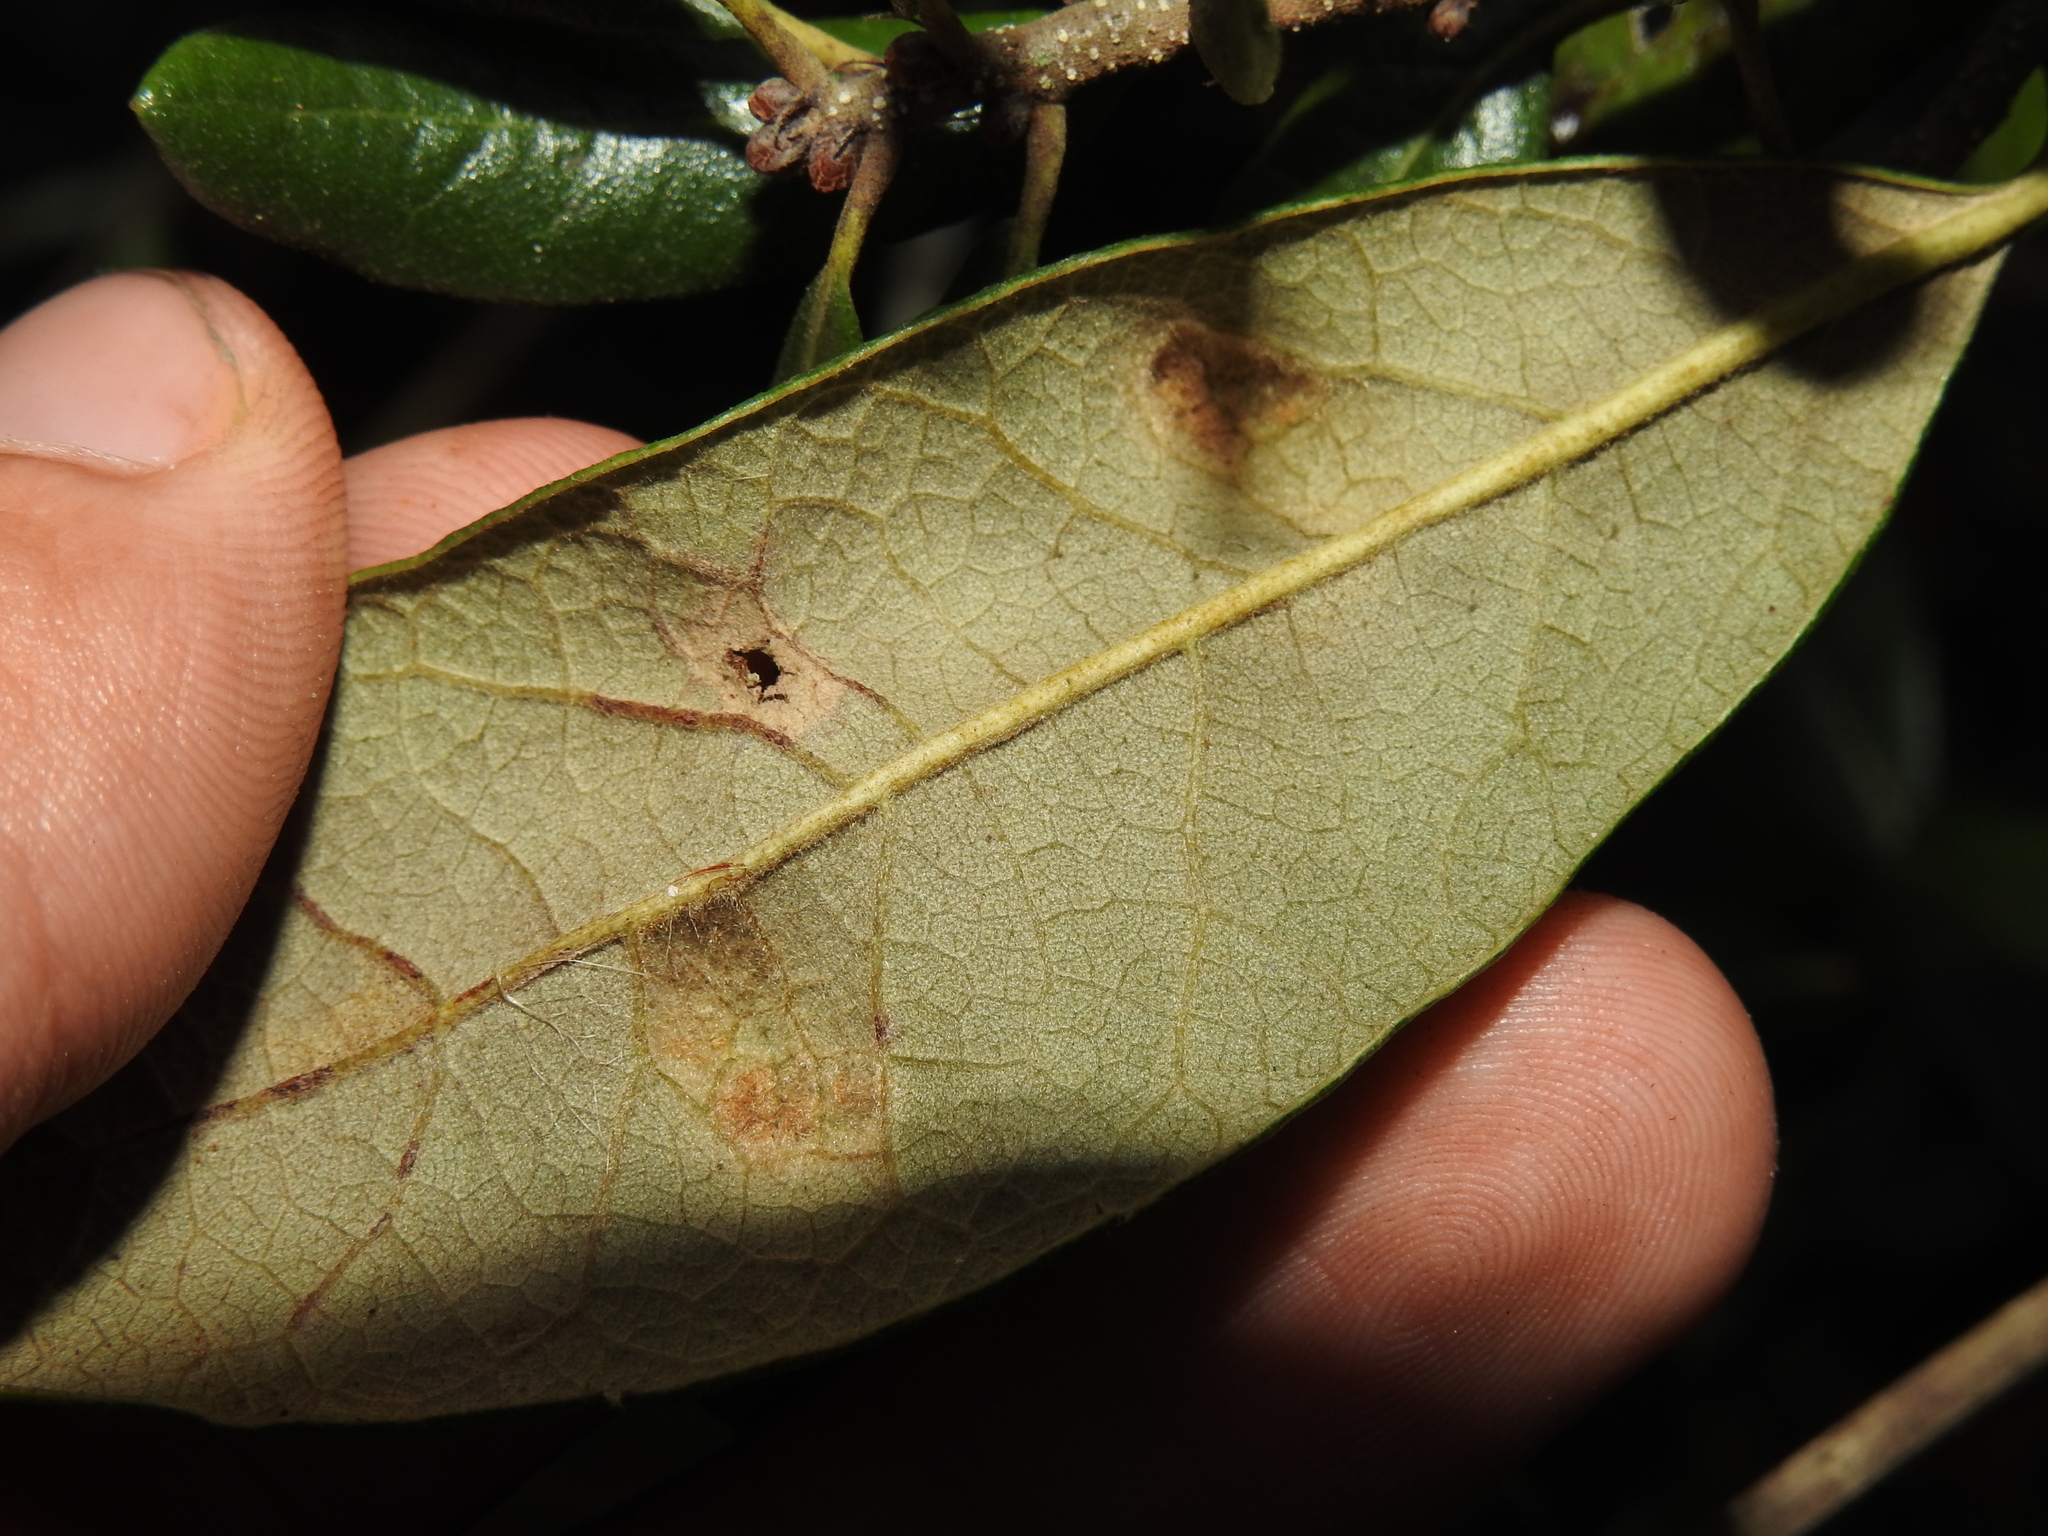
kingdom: Animalia
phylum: Arthropoda
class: Arachnida
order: Trombidiformes
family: Eriophyidae
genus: Aceria
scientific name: Aceria quercina
